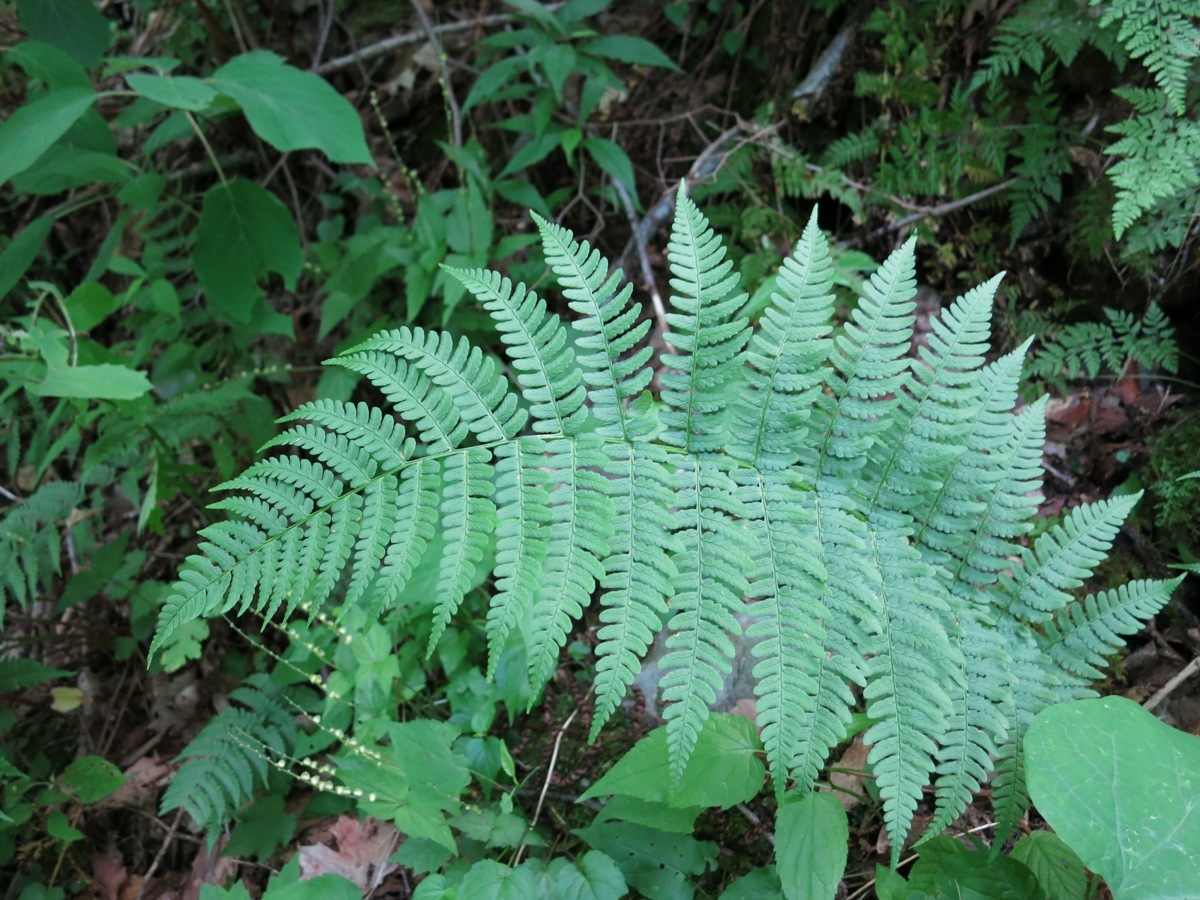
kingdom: Plantae
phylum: Tracheophyta
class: Polypodiopsida
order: Polypodiales
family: Dryopteridaceae
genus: Dryopteris
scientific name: Dryopteris marginalis
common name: Marginal wood fern
